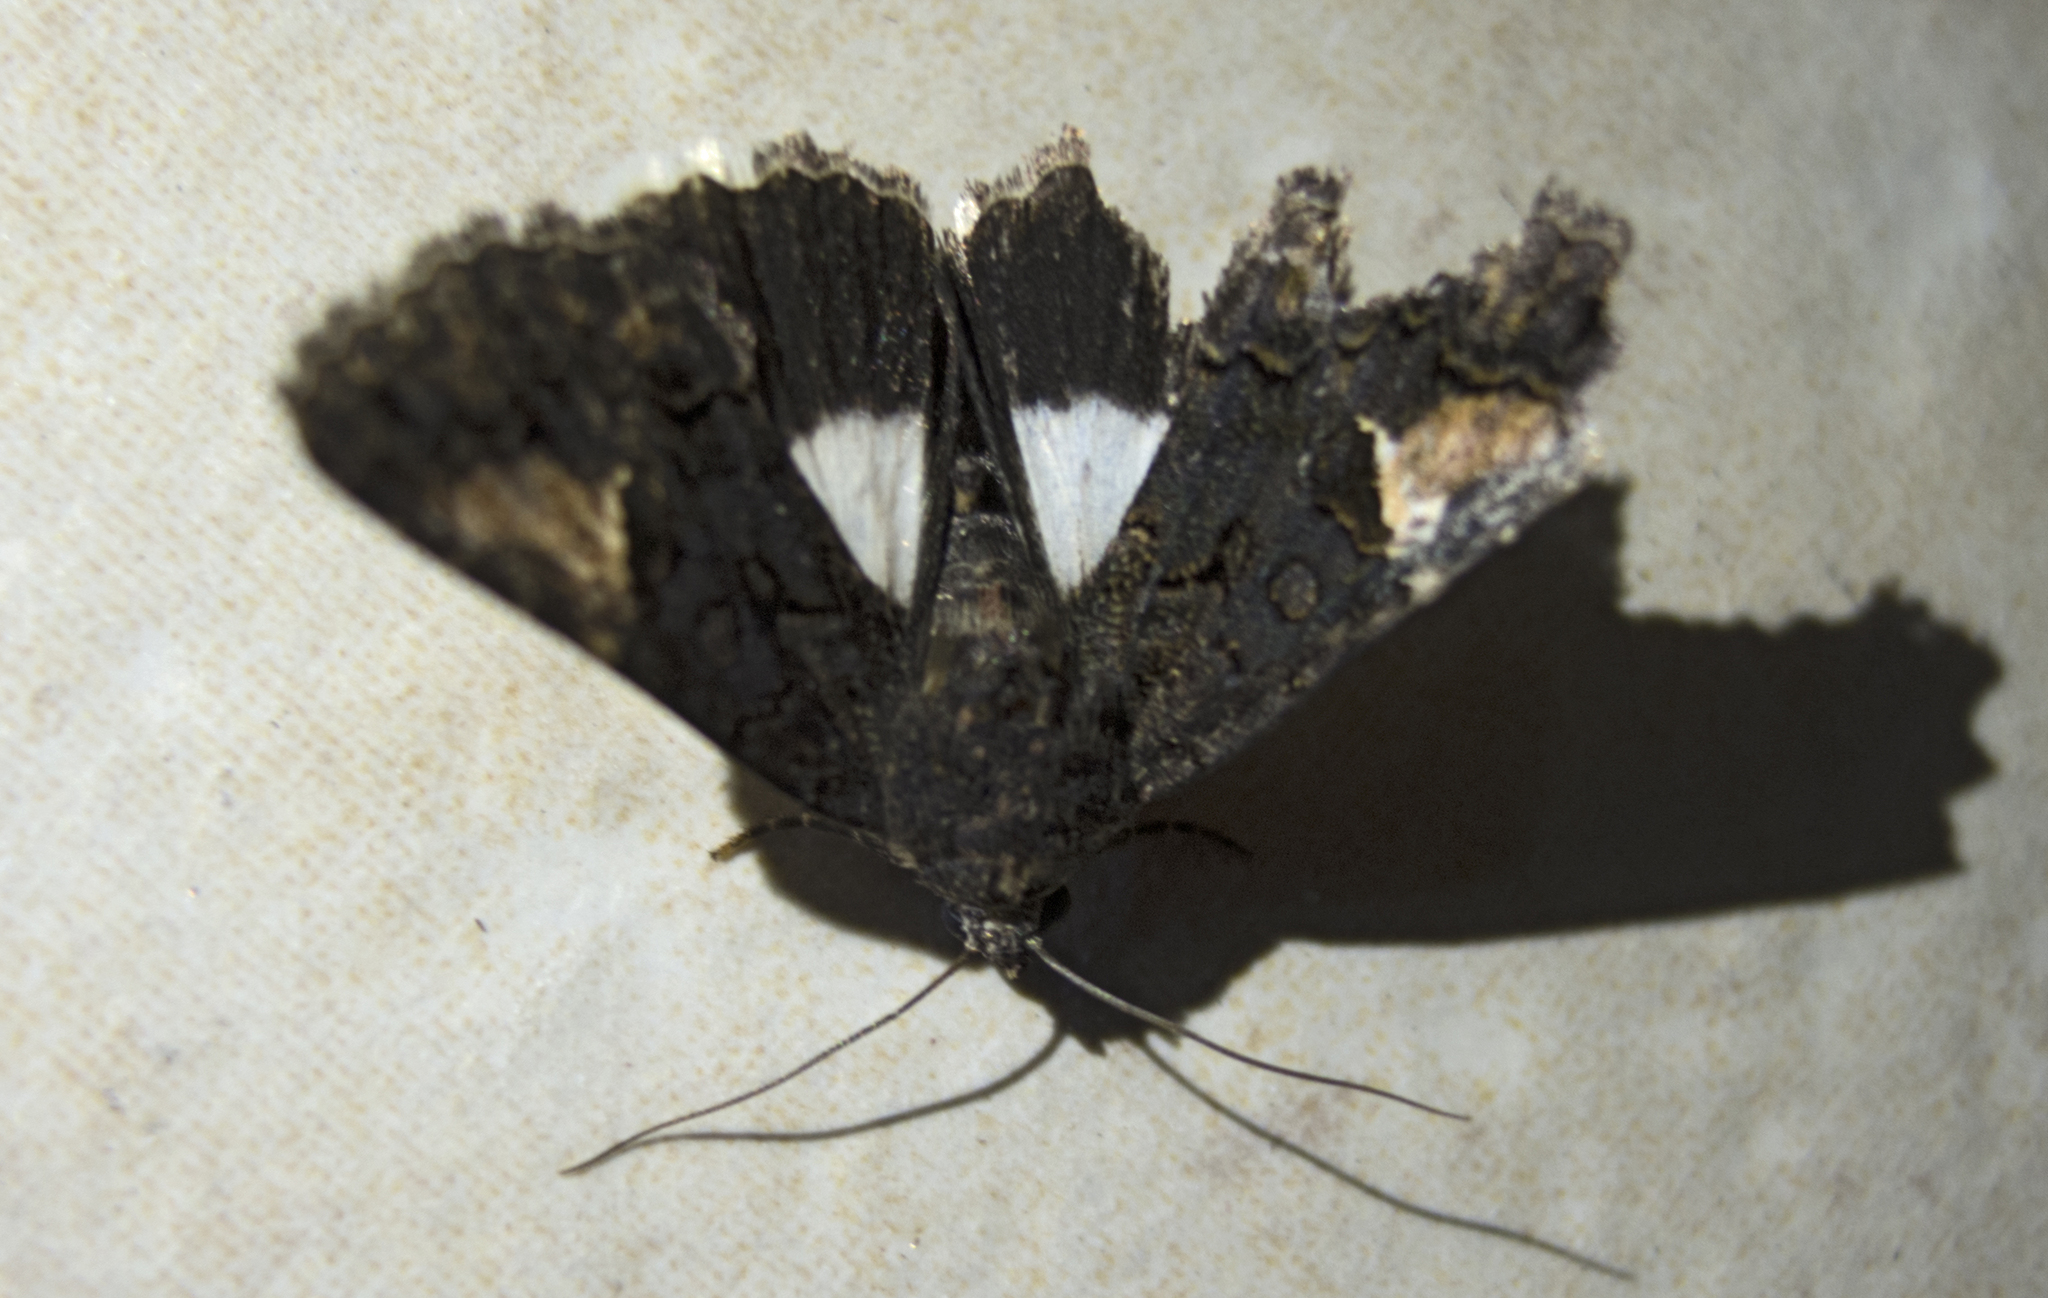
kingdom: Animalia
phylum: Arthropoda
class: Insecta
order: Lepidoptera
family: Noctuidae
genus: Aedia
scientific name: Aedia funesta
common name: The druid
